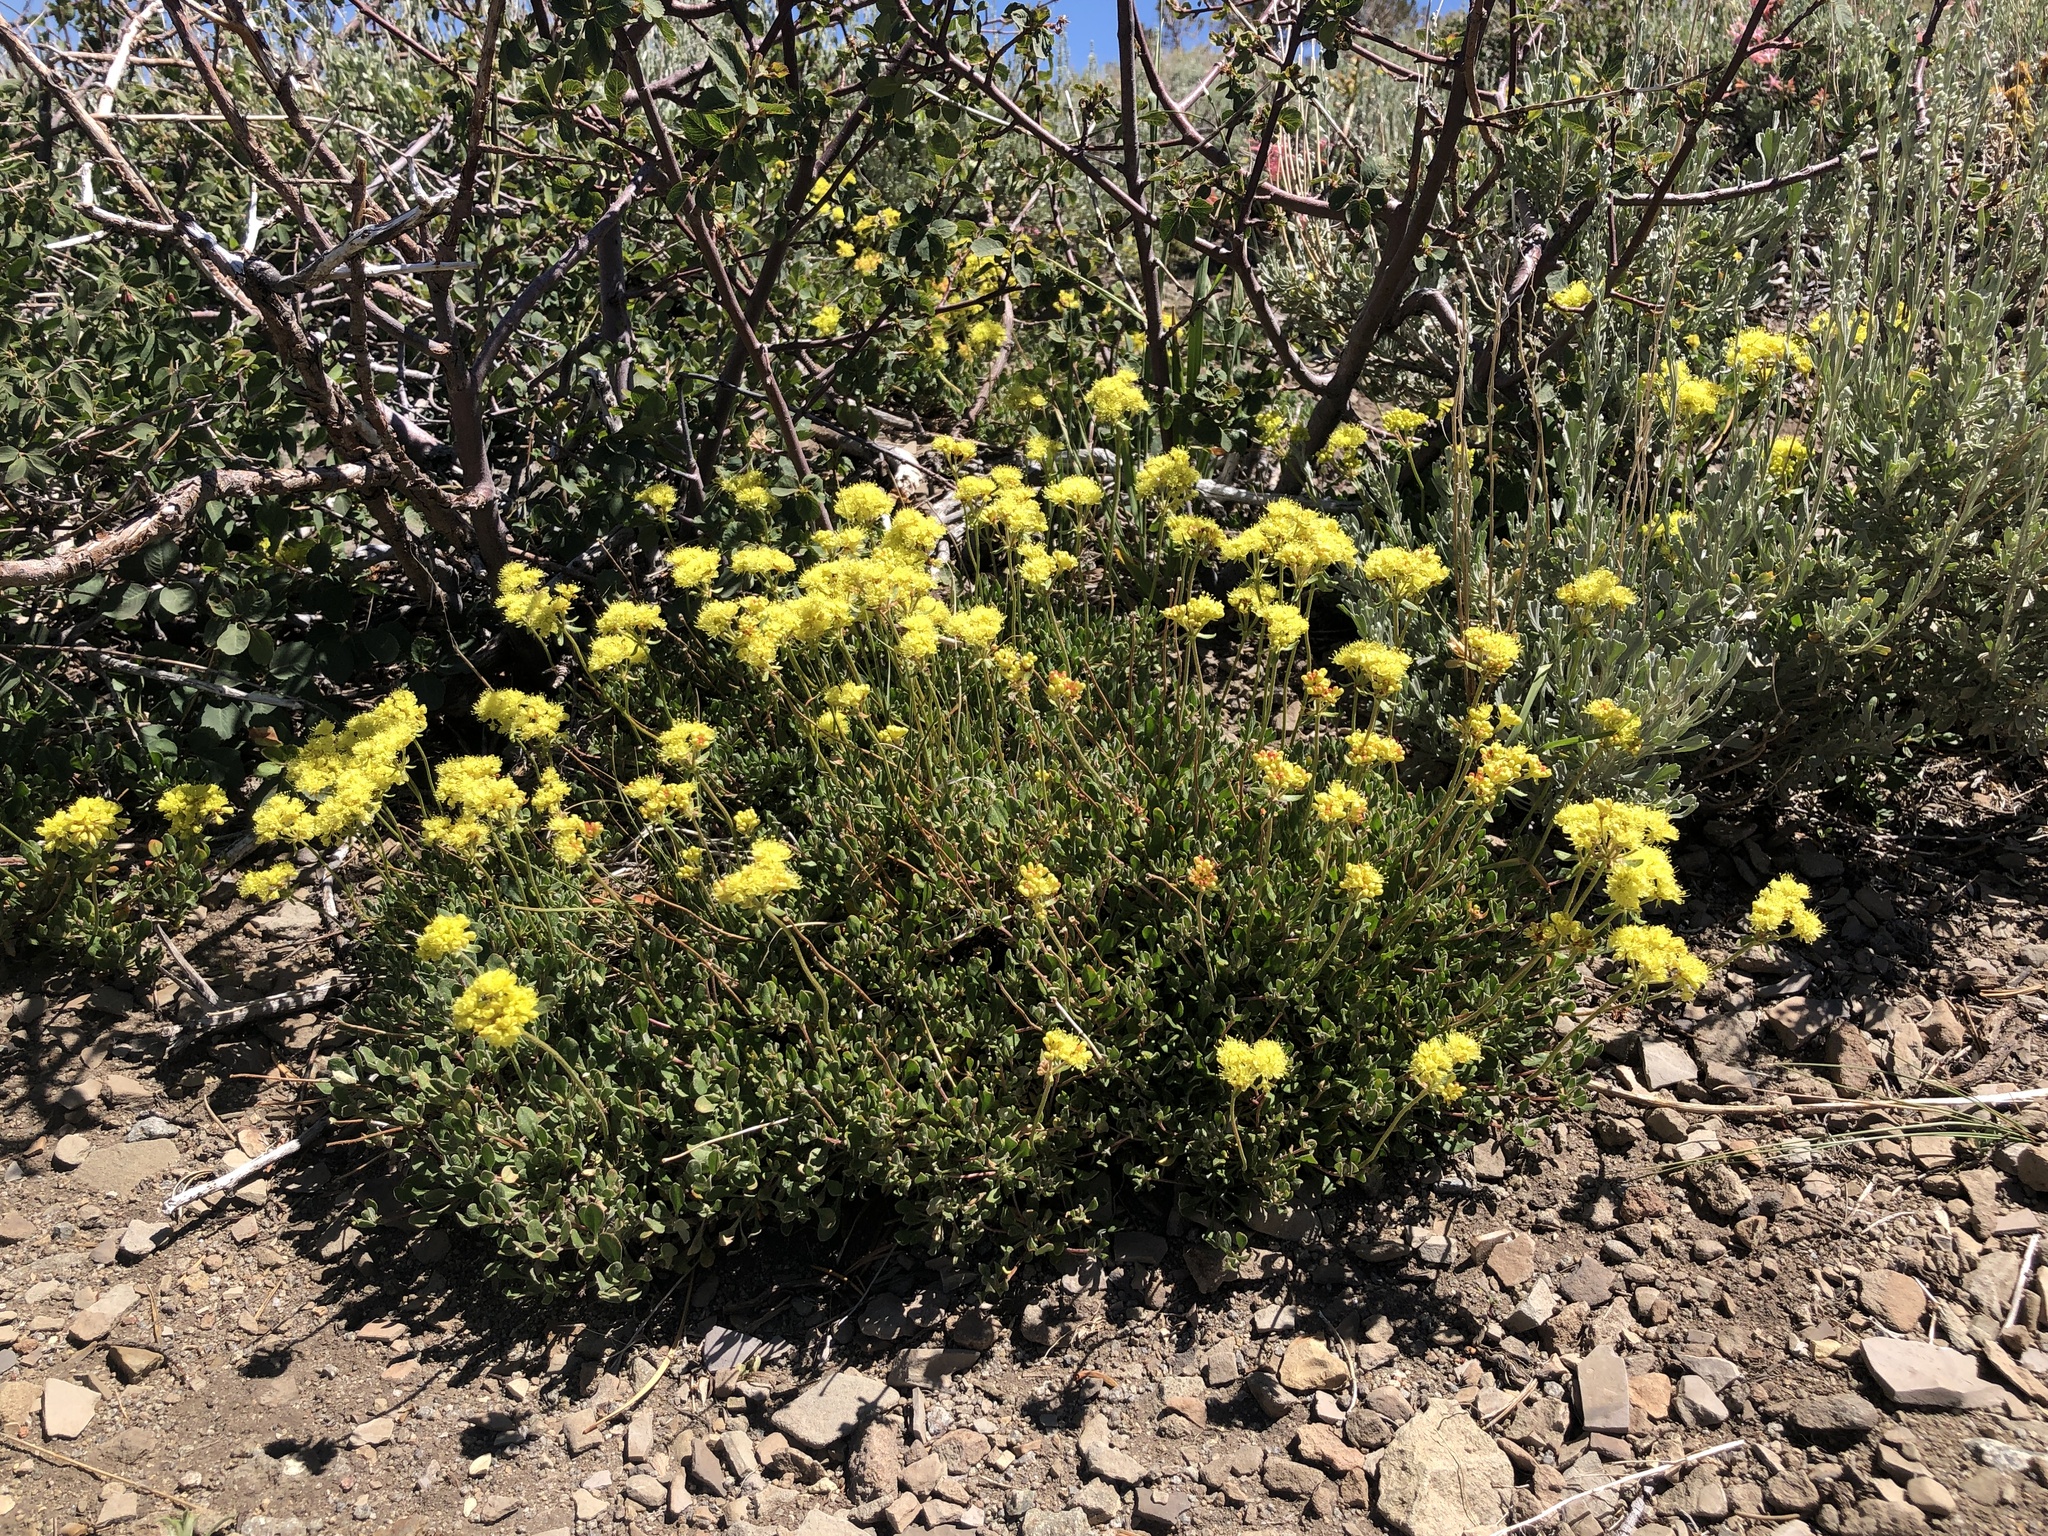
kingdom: Plantae
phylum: Tracheophyta
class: Magnoliopsida
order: Caryophyllales
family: Polygonaceae
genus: Eriogonum
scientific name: Eriogonum umbellatum
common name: Sulfur-buckwheat
